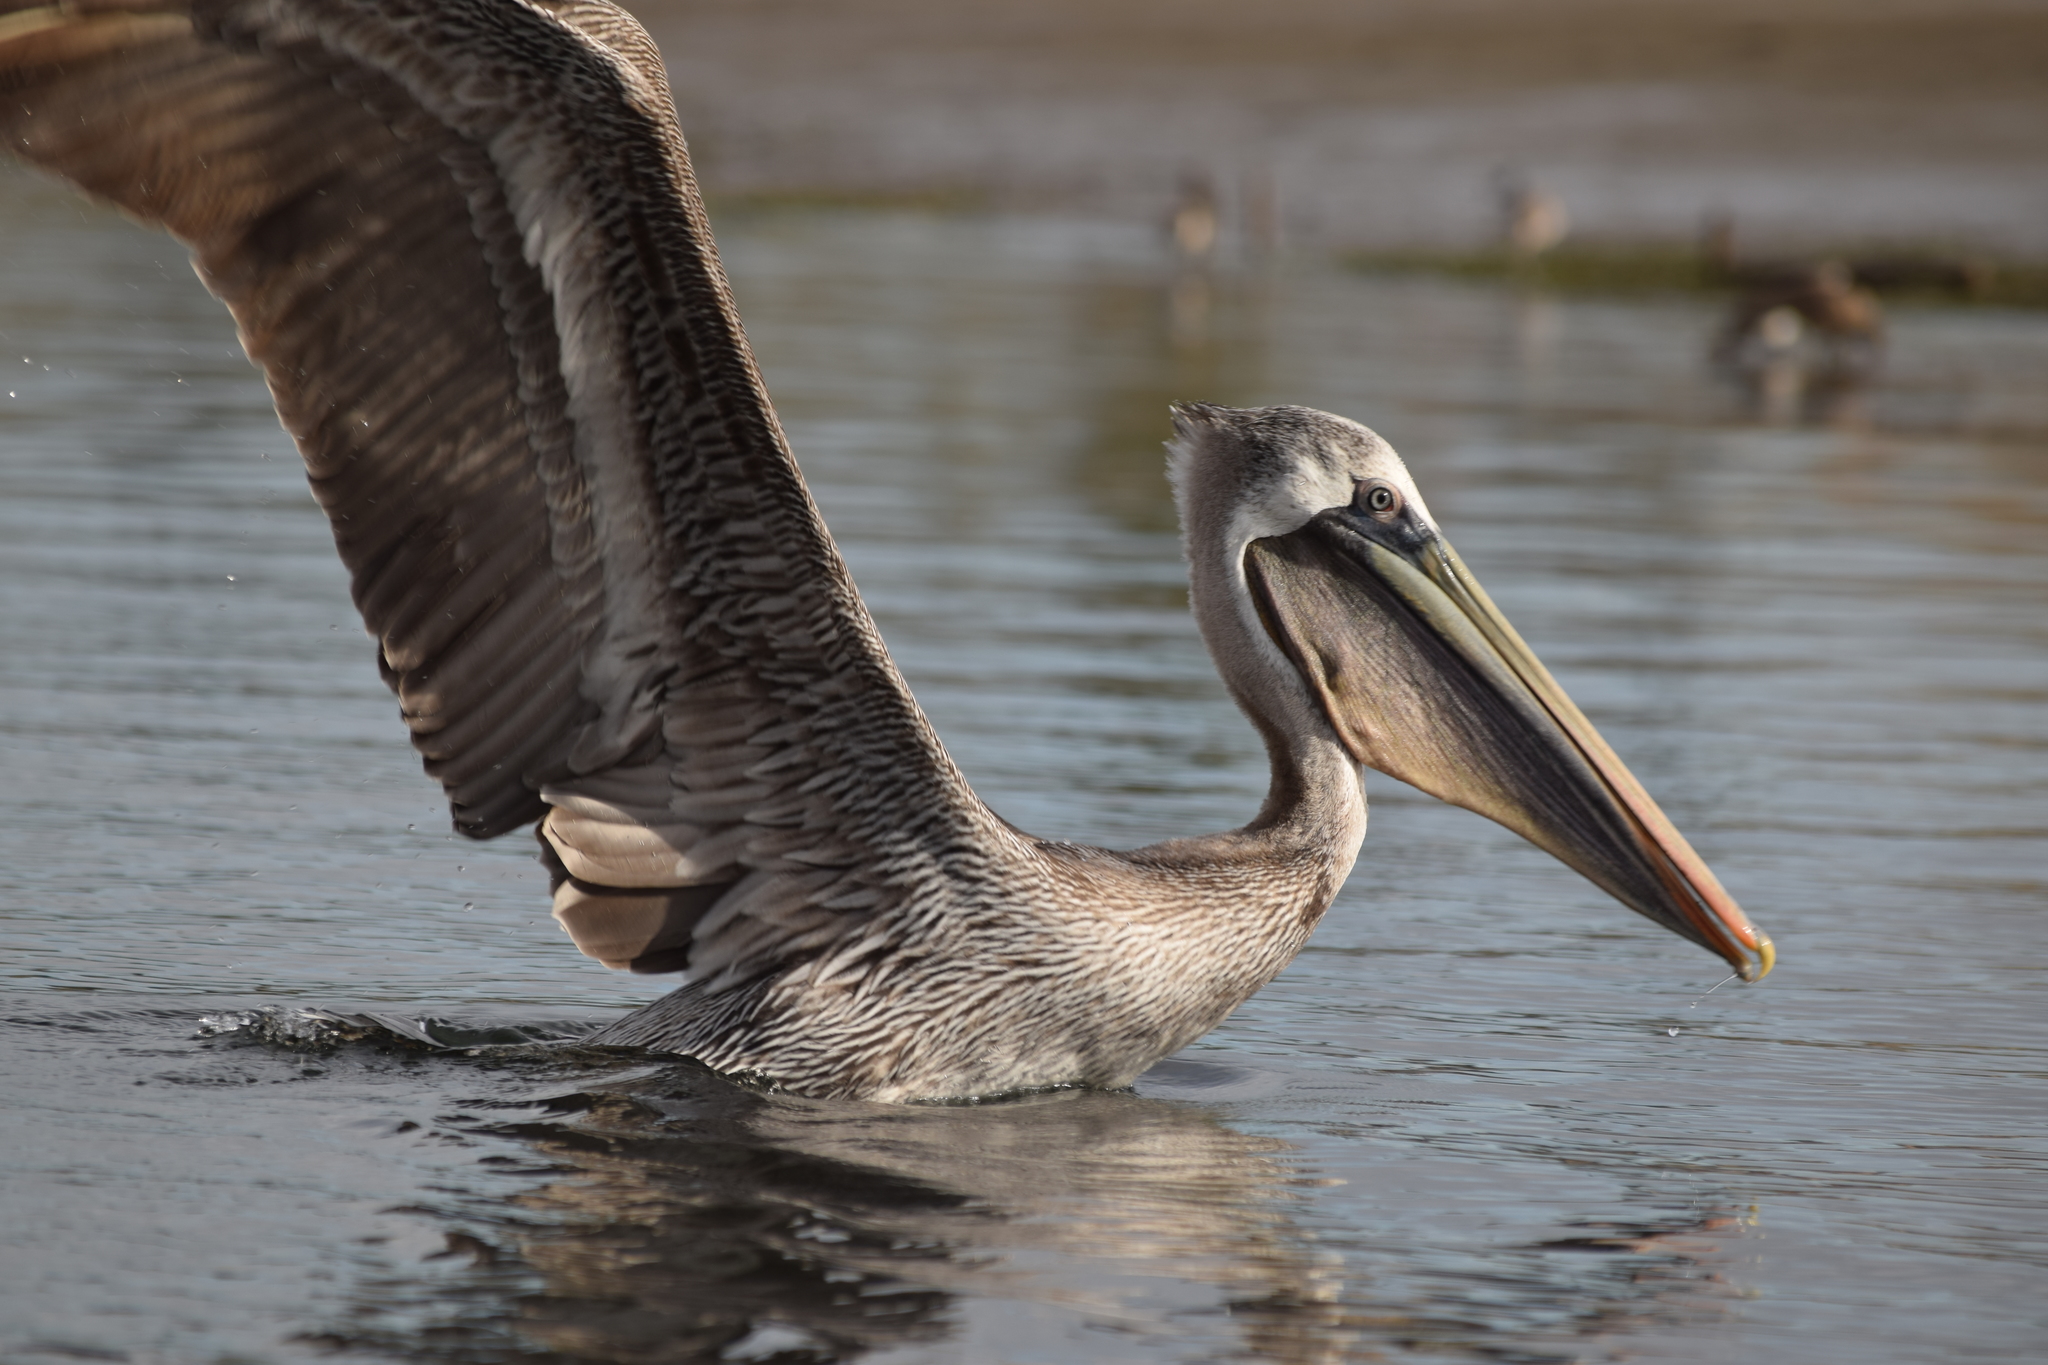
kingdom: Animalia
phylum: Chordata
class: Aves
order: Pelecaniformes
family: Pelecanidae
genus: Pelecanus
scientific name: Pelecanus occidentalis
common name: Brown pelican
